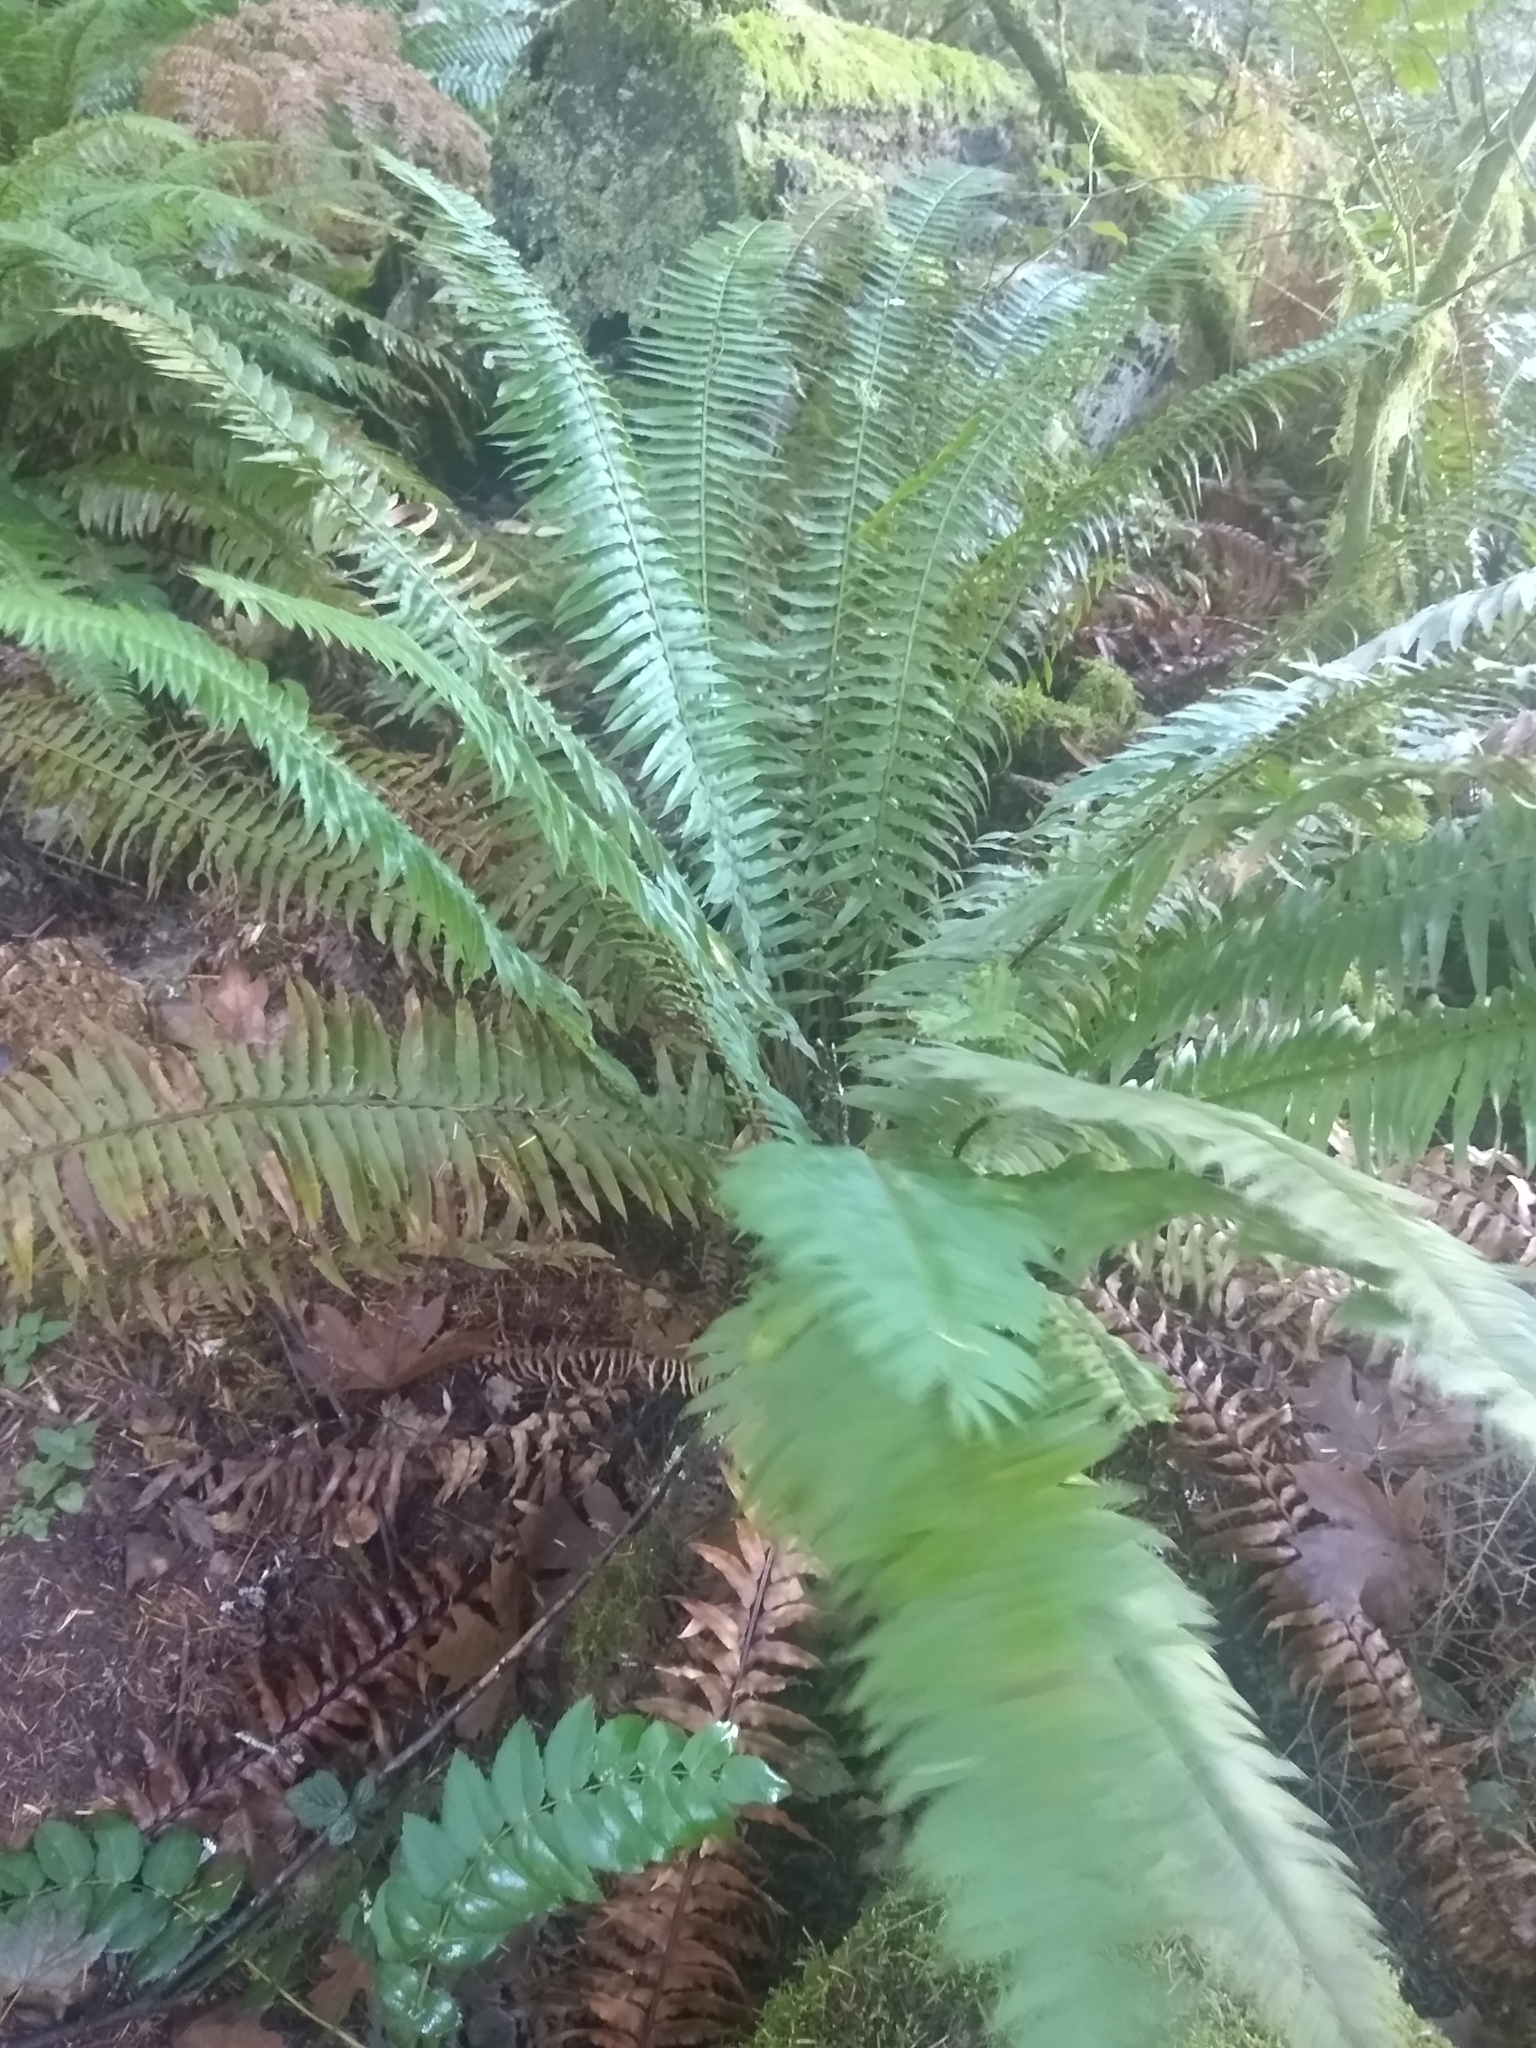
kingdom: Plantae
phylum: Tracheophyta
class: Polypodiopsida
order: Polypodiales
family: Dryopteridaceae
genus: Polystichum
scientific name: Polystichum munitum
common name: Western sword-fern
